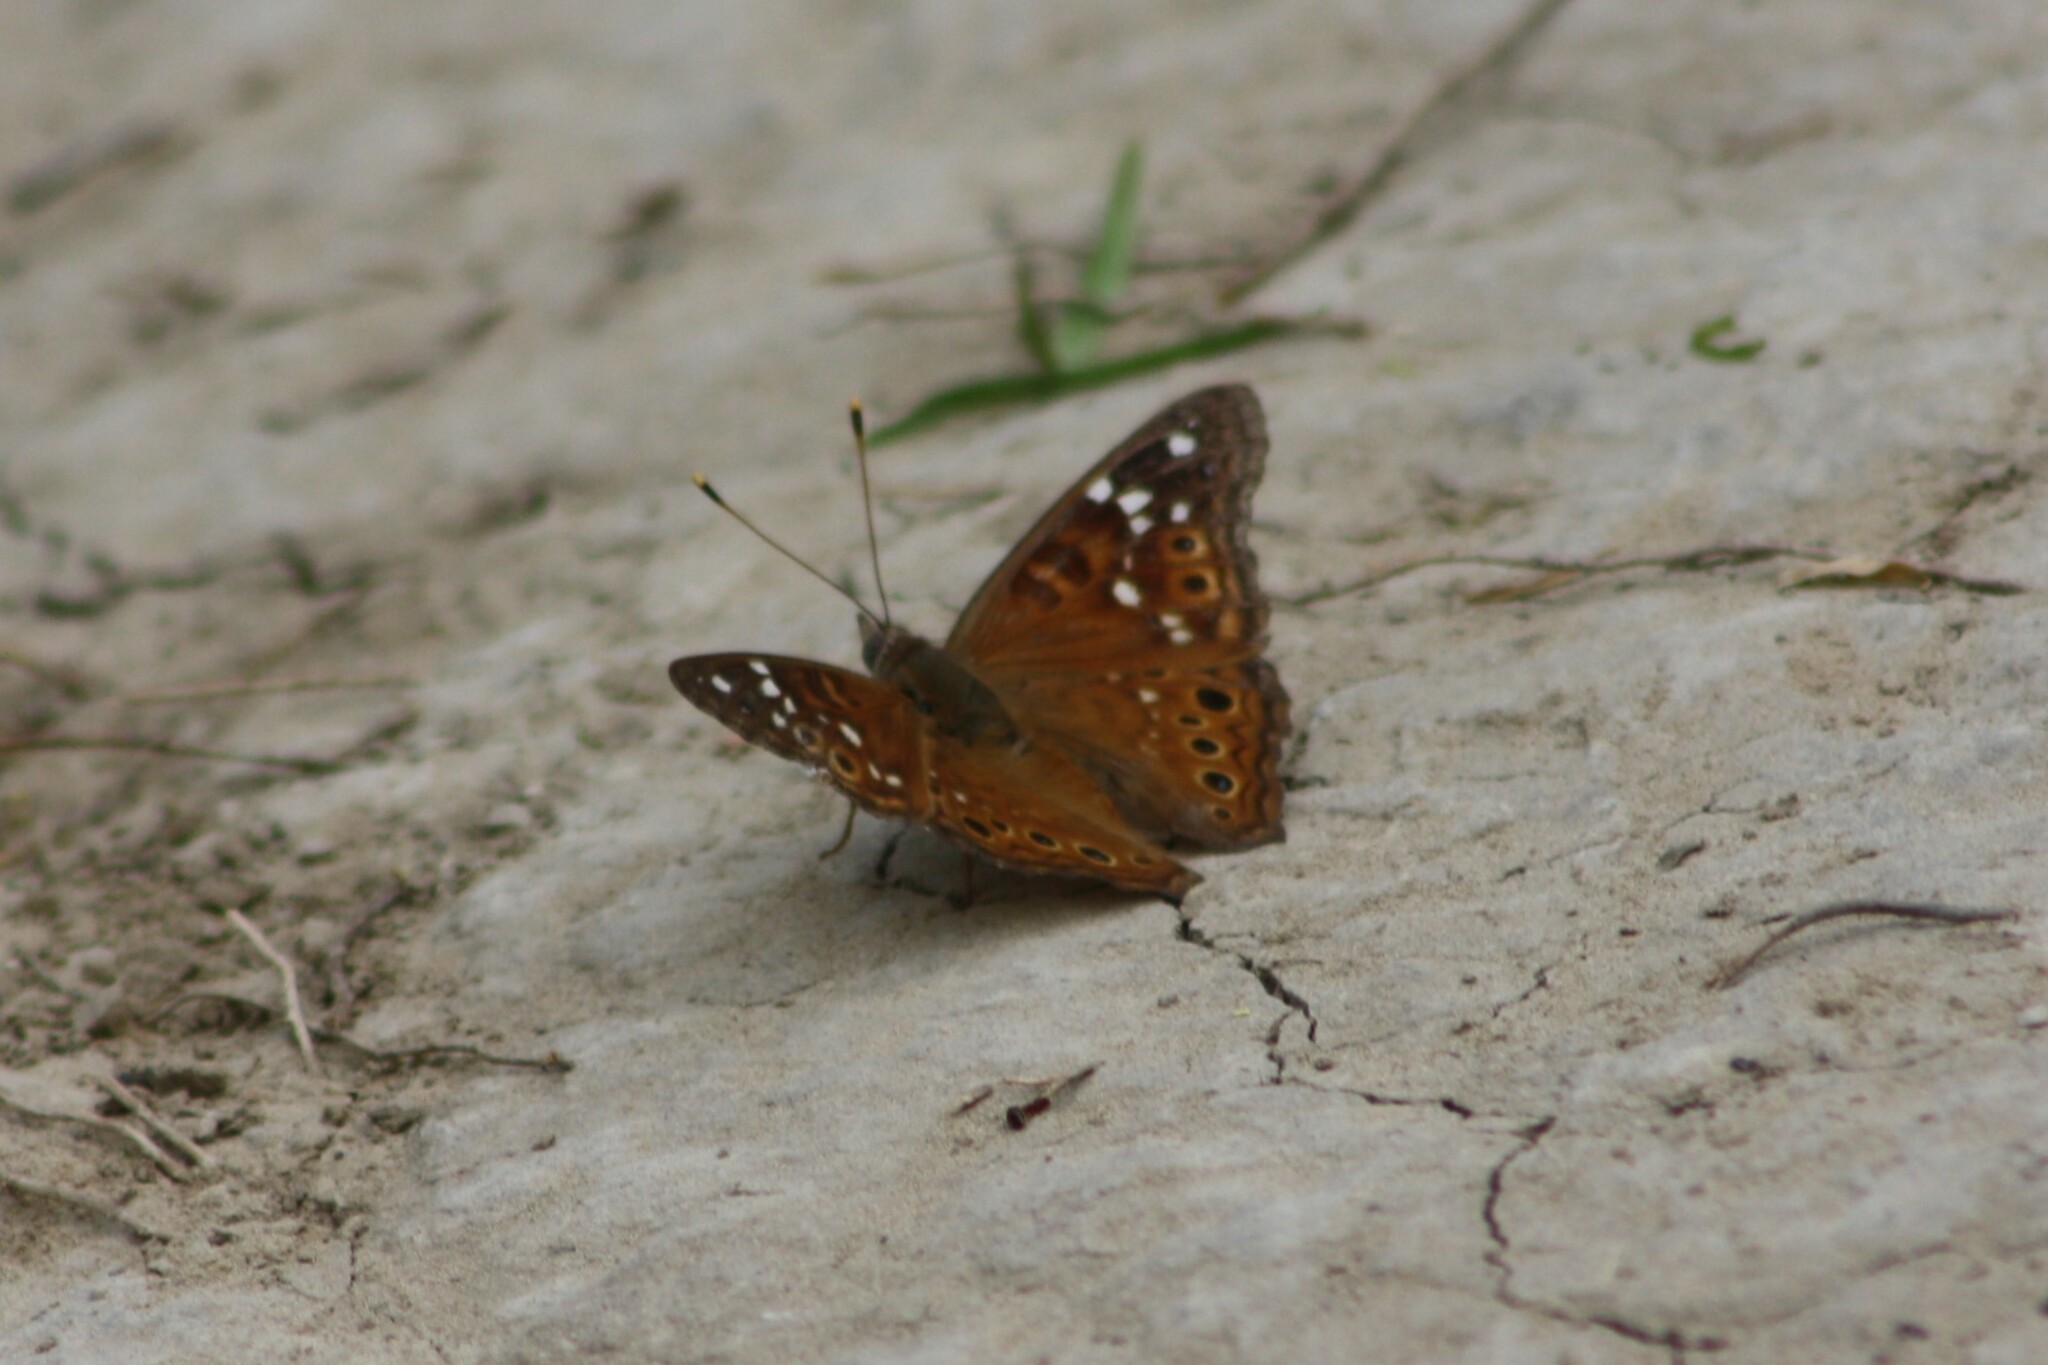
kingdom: Animalia
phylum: Arthropoda
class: Insecta
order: Lepidoptera
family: Nymphalidae
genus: Asterocampa
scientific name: Asterocampa leilia
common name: Empress leilia
